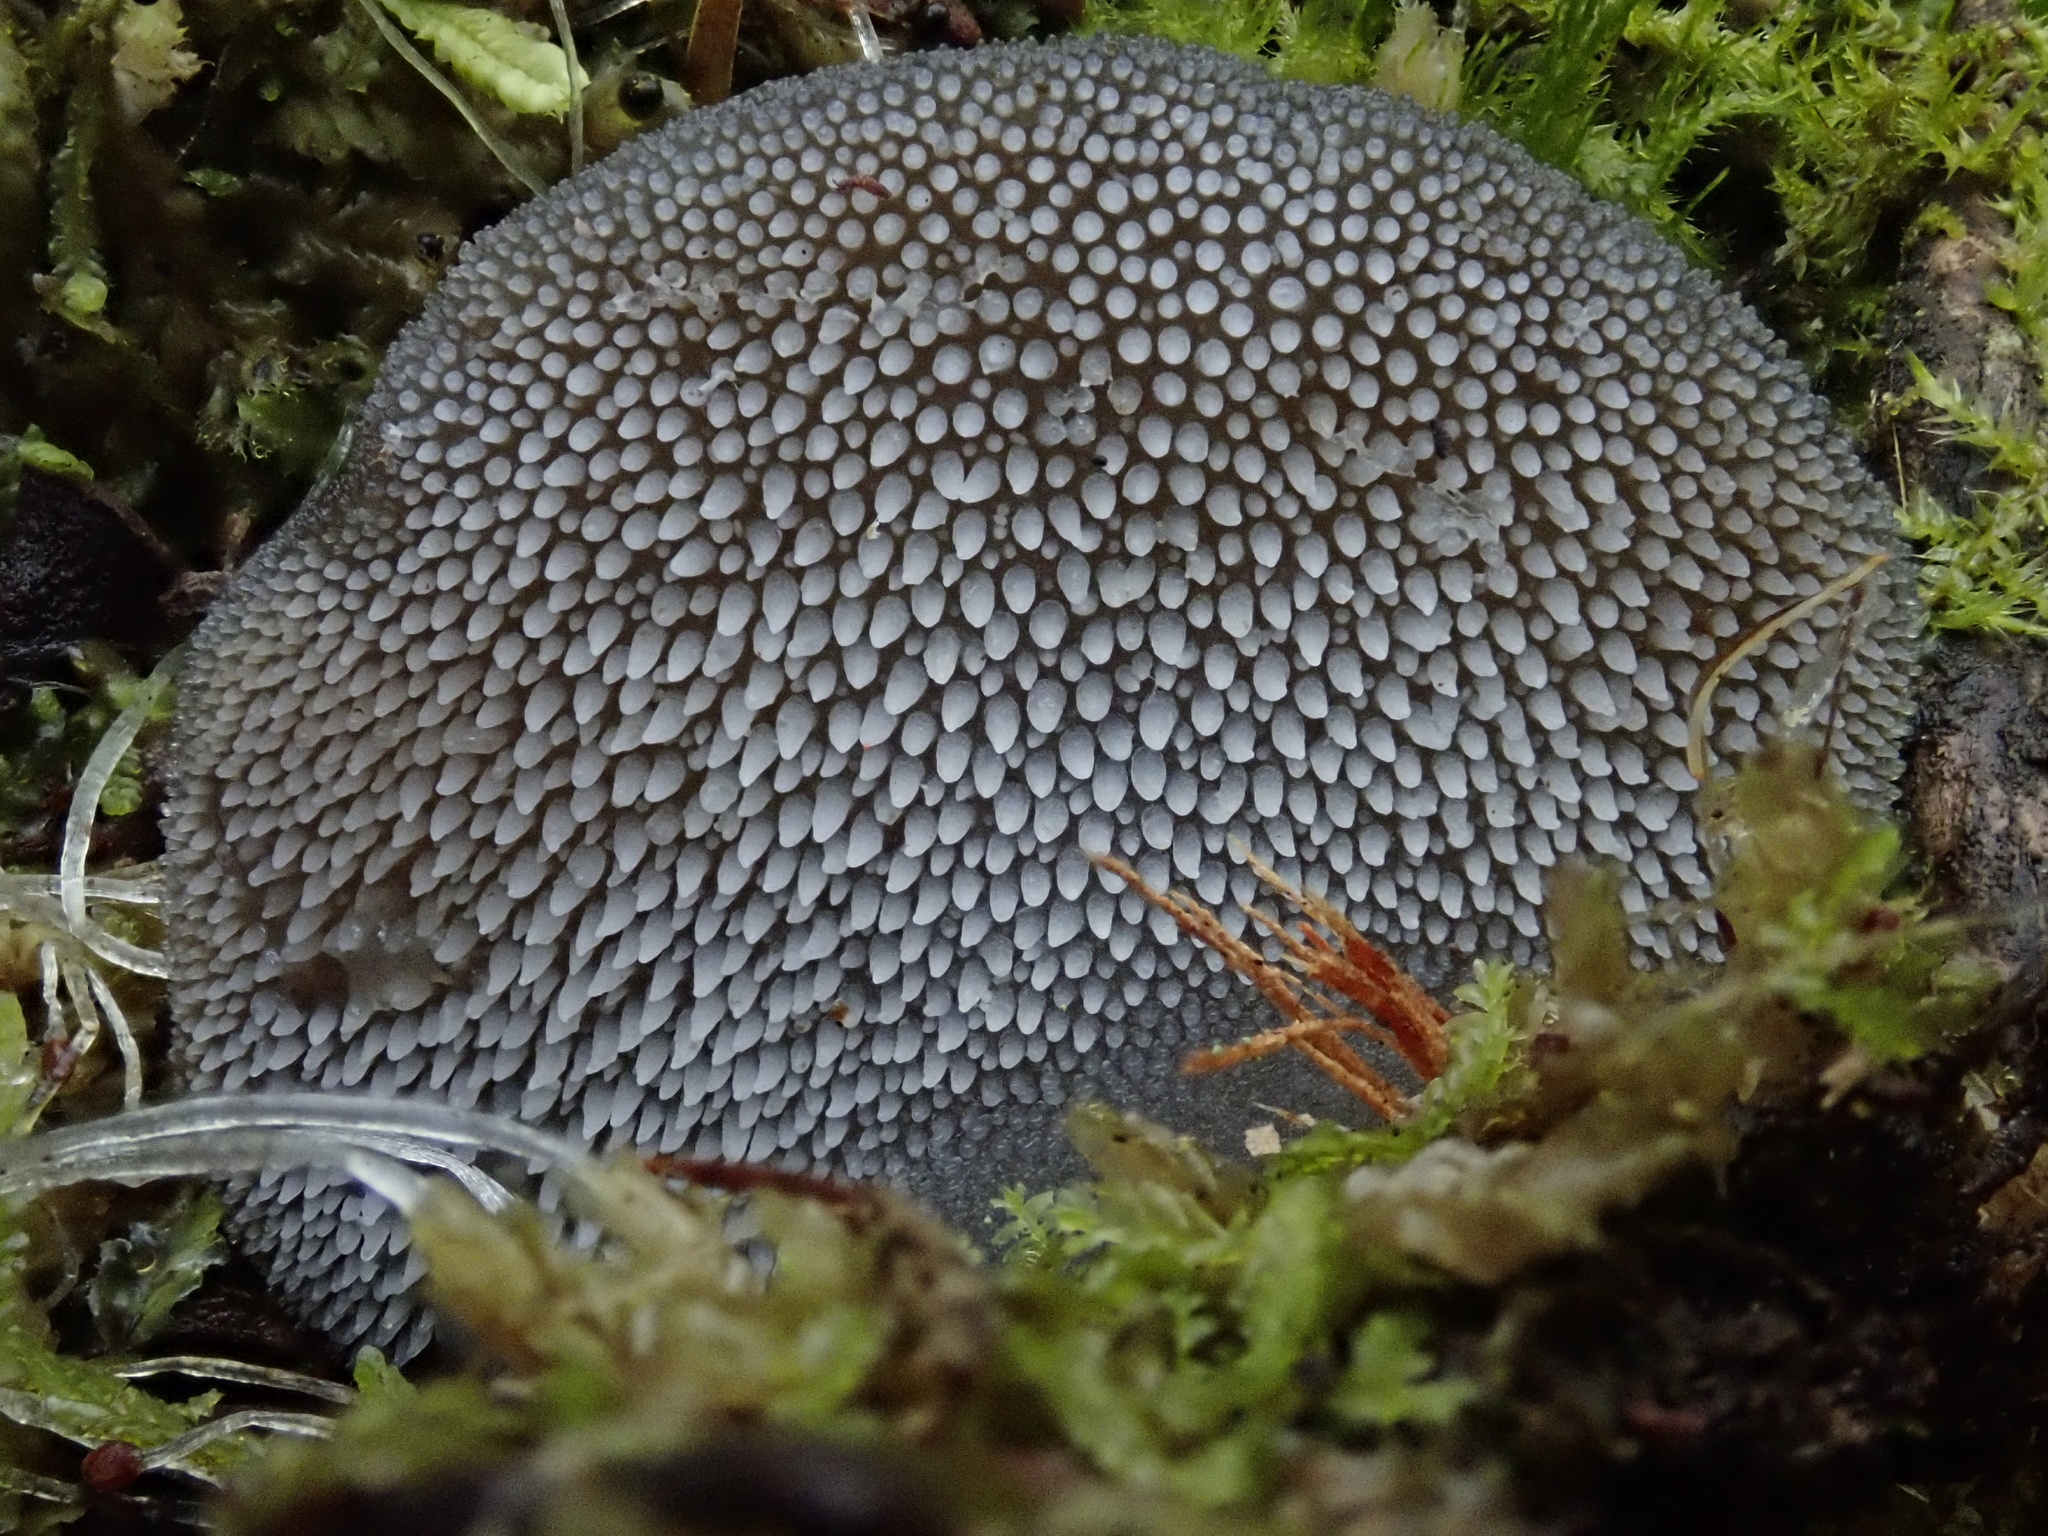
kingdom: Fungi
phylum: Basidiomycota
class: Agaricomycetes
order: Auriculariales
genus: Pseudohydnum
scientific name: Pseudohydnum gelatinosum
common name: Jelly tongue
